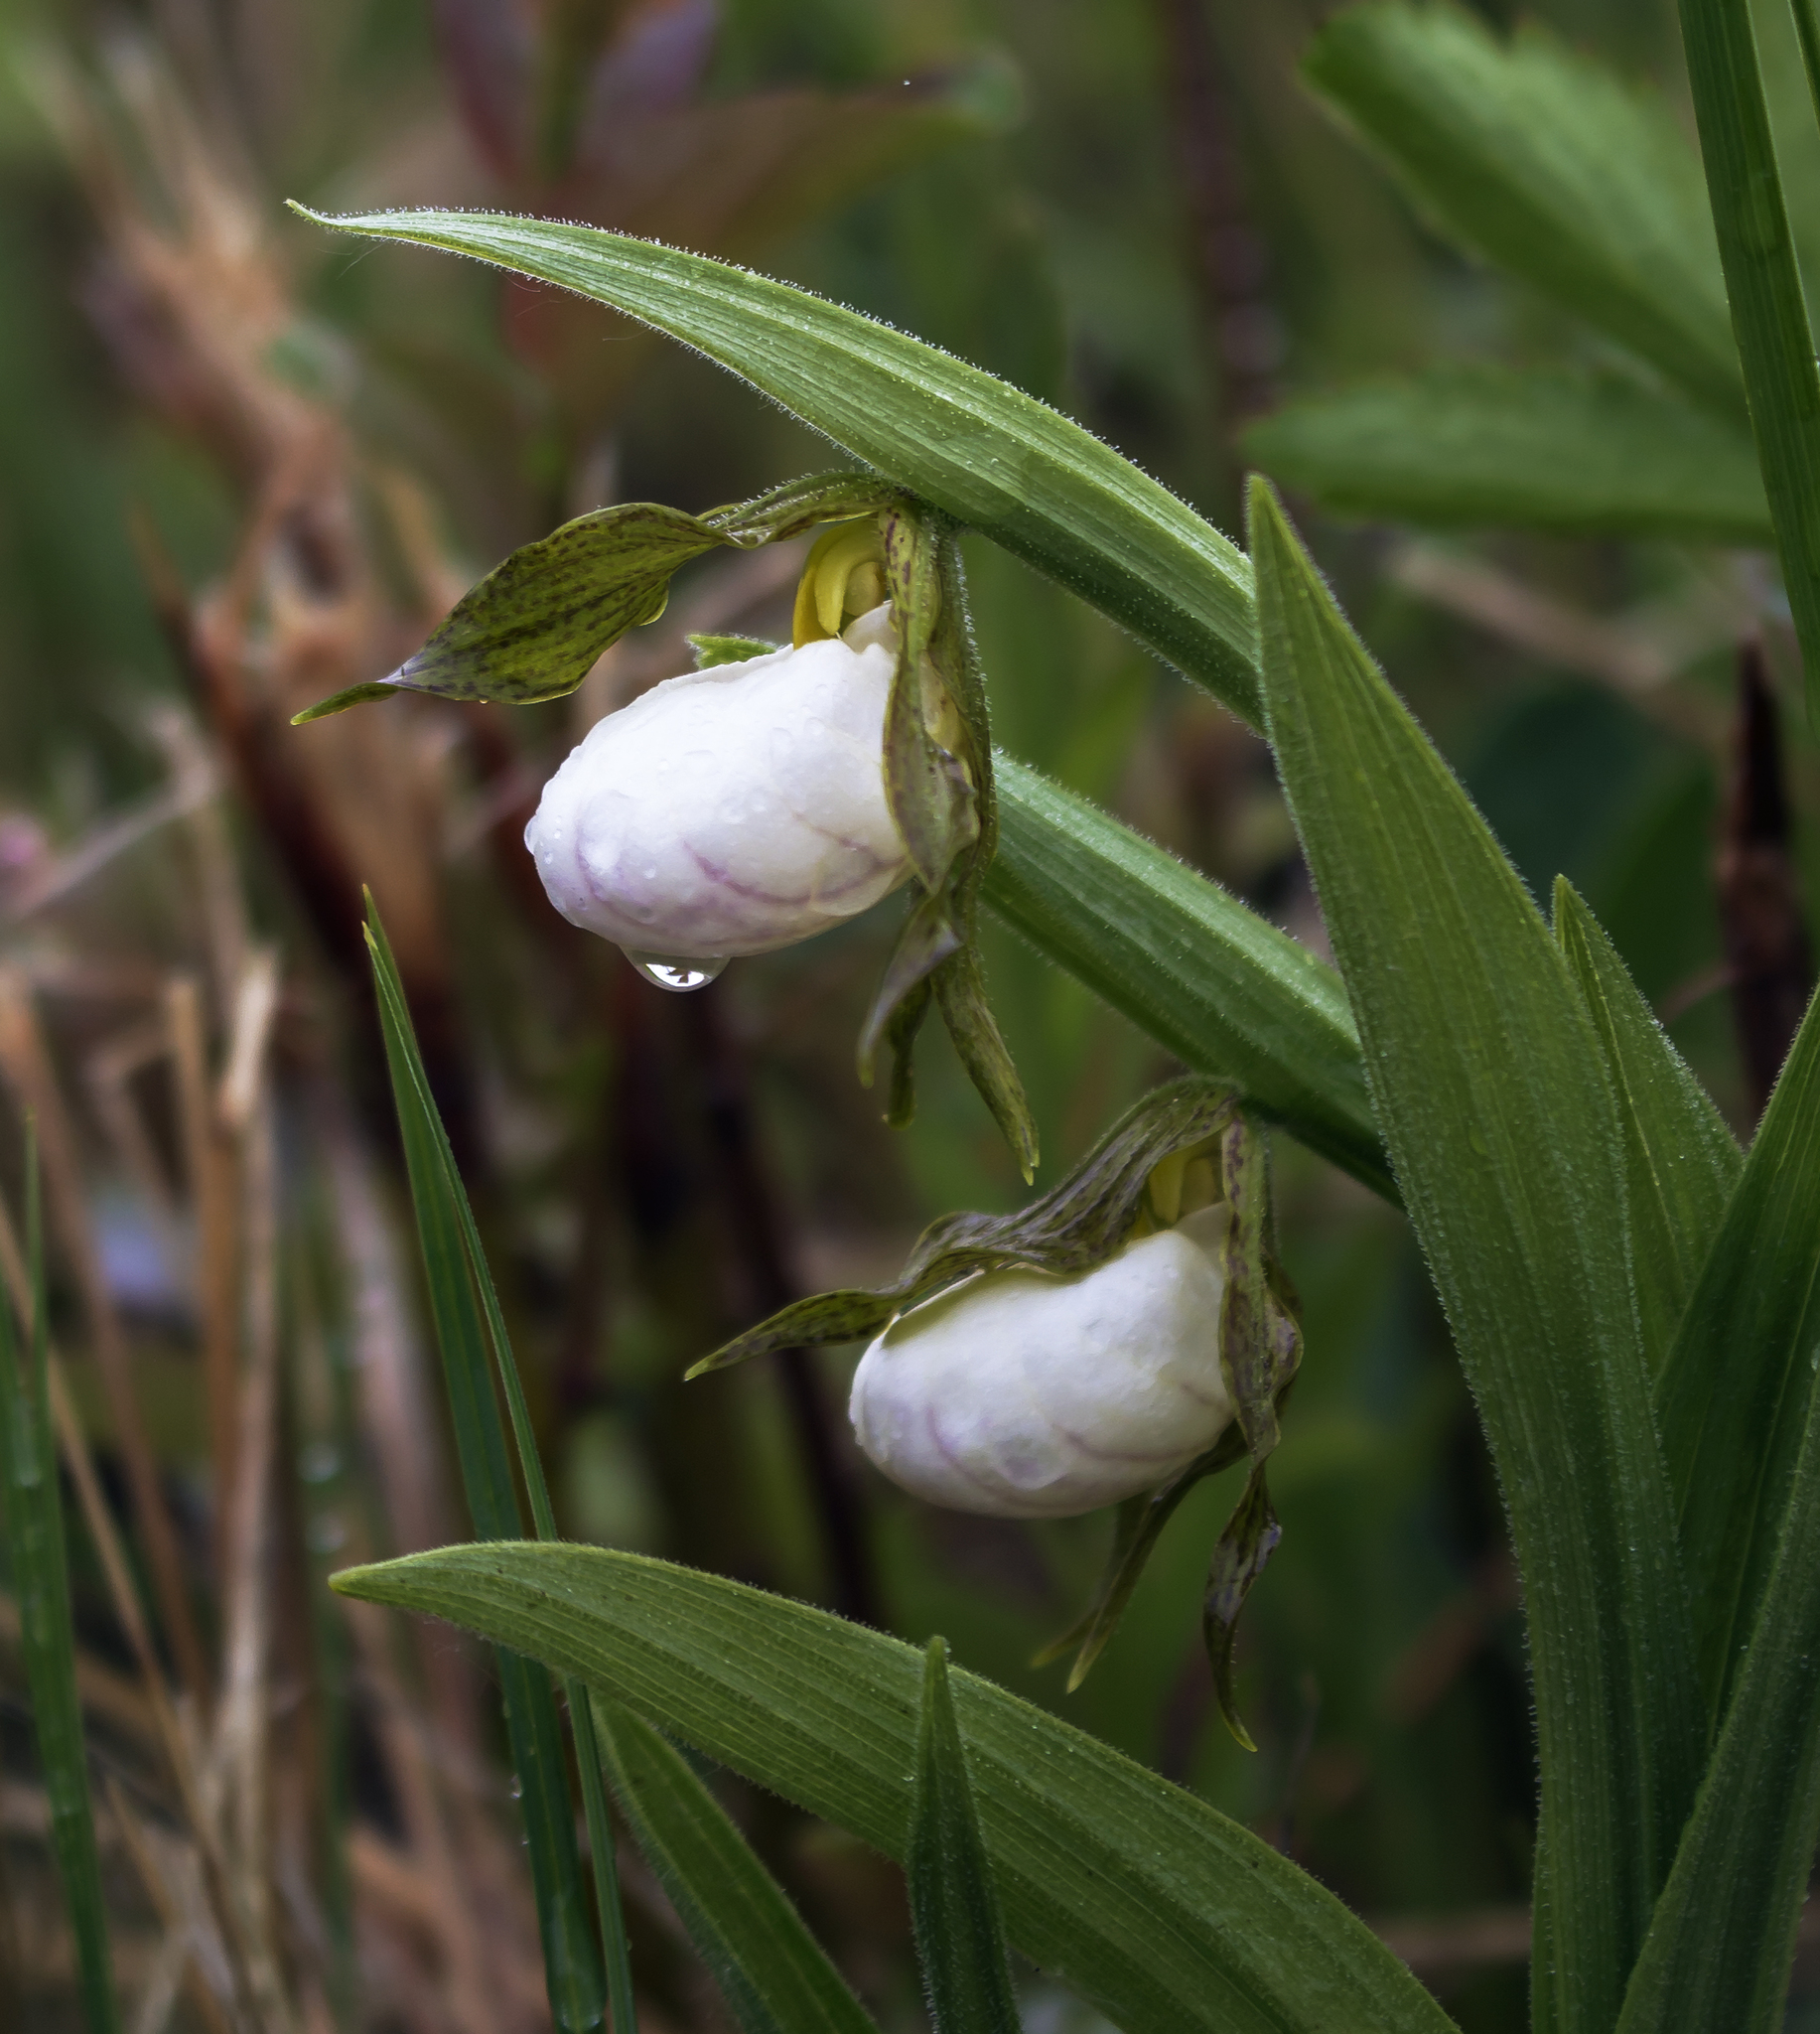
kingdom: Plantae
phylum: Tracheophyta
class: Liliopsida
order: Asparagales
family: Orchidaceae
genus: Cypripedium
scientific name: Cypripedium candidum
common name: White lady's-slipper
